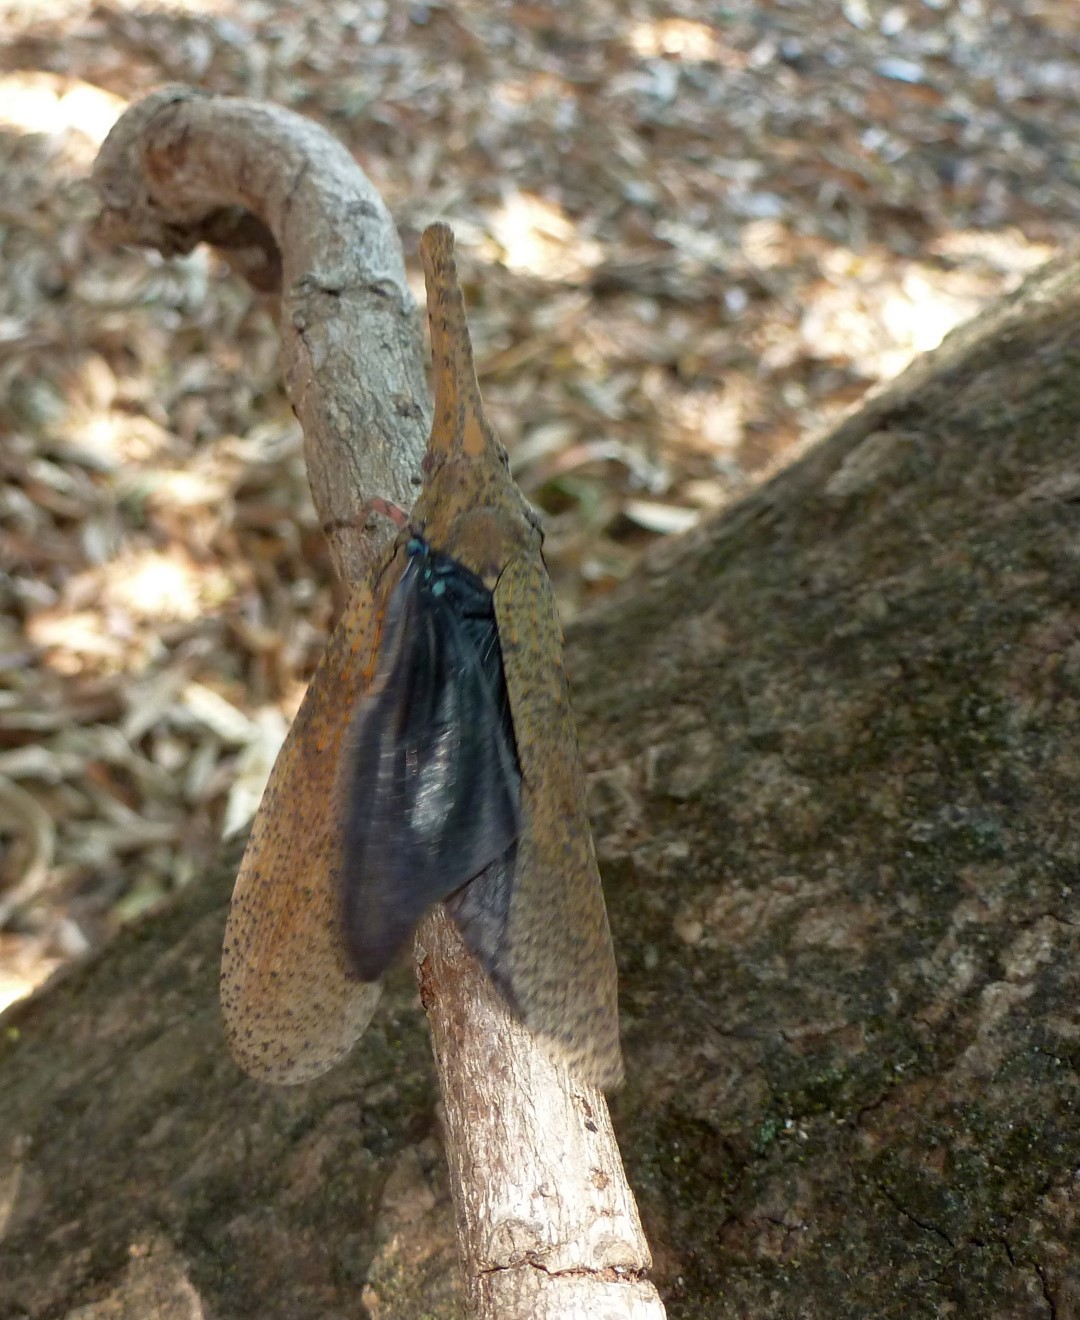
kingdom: Animalia
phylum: Arthropoda
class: Insecta
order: Hemiptera
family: Fulgoridae
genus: Zanna
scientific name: Zanna tenebrosa
